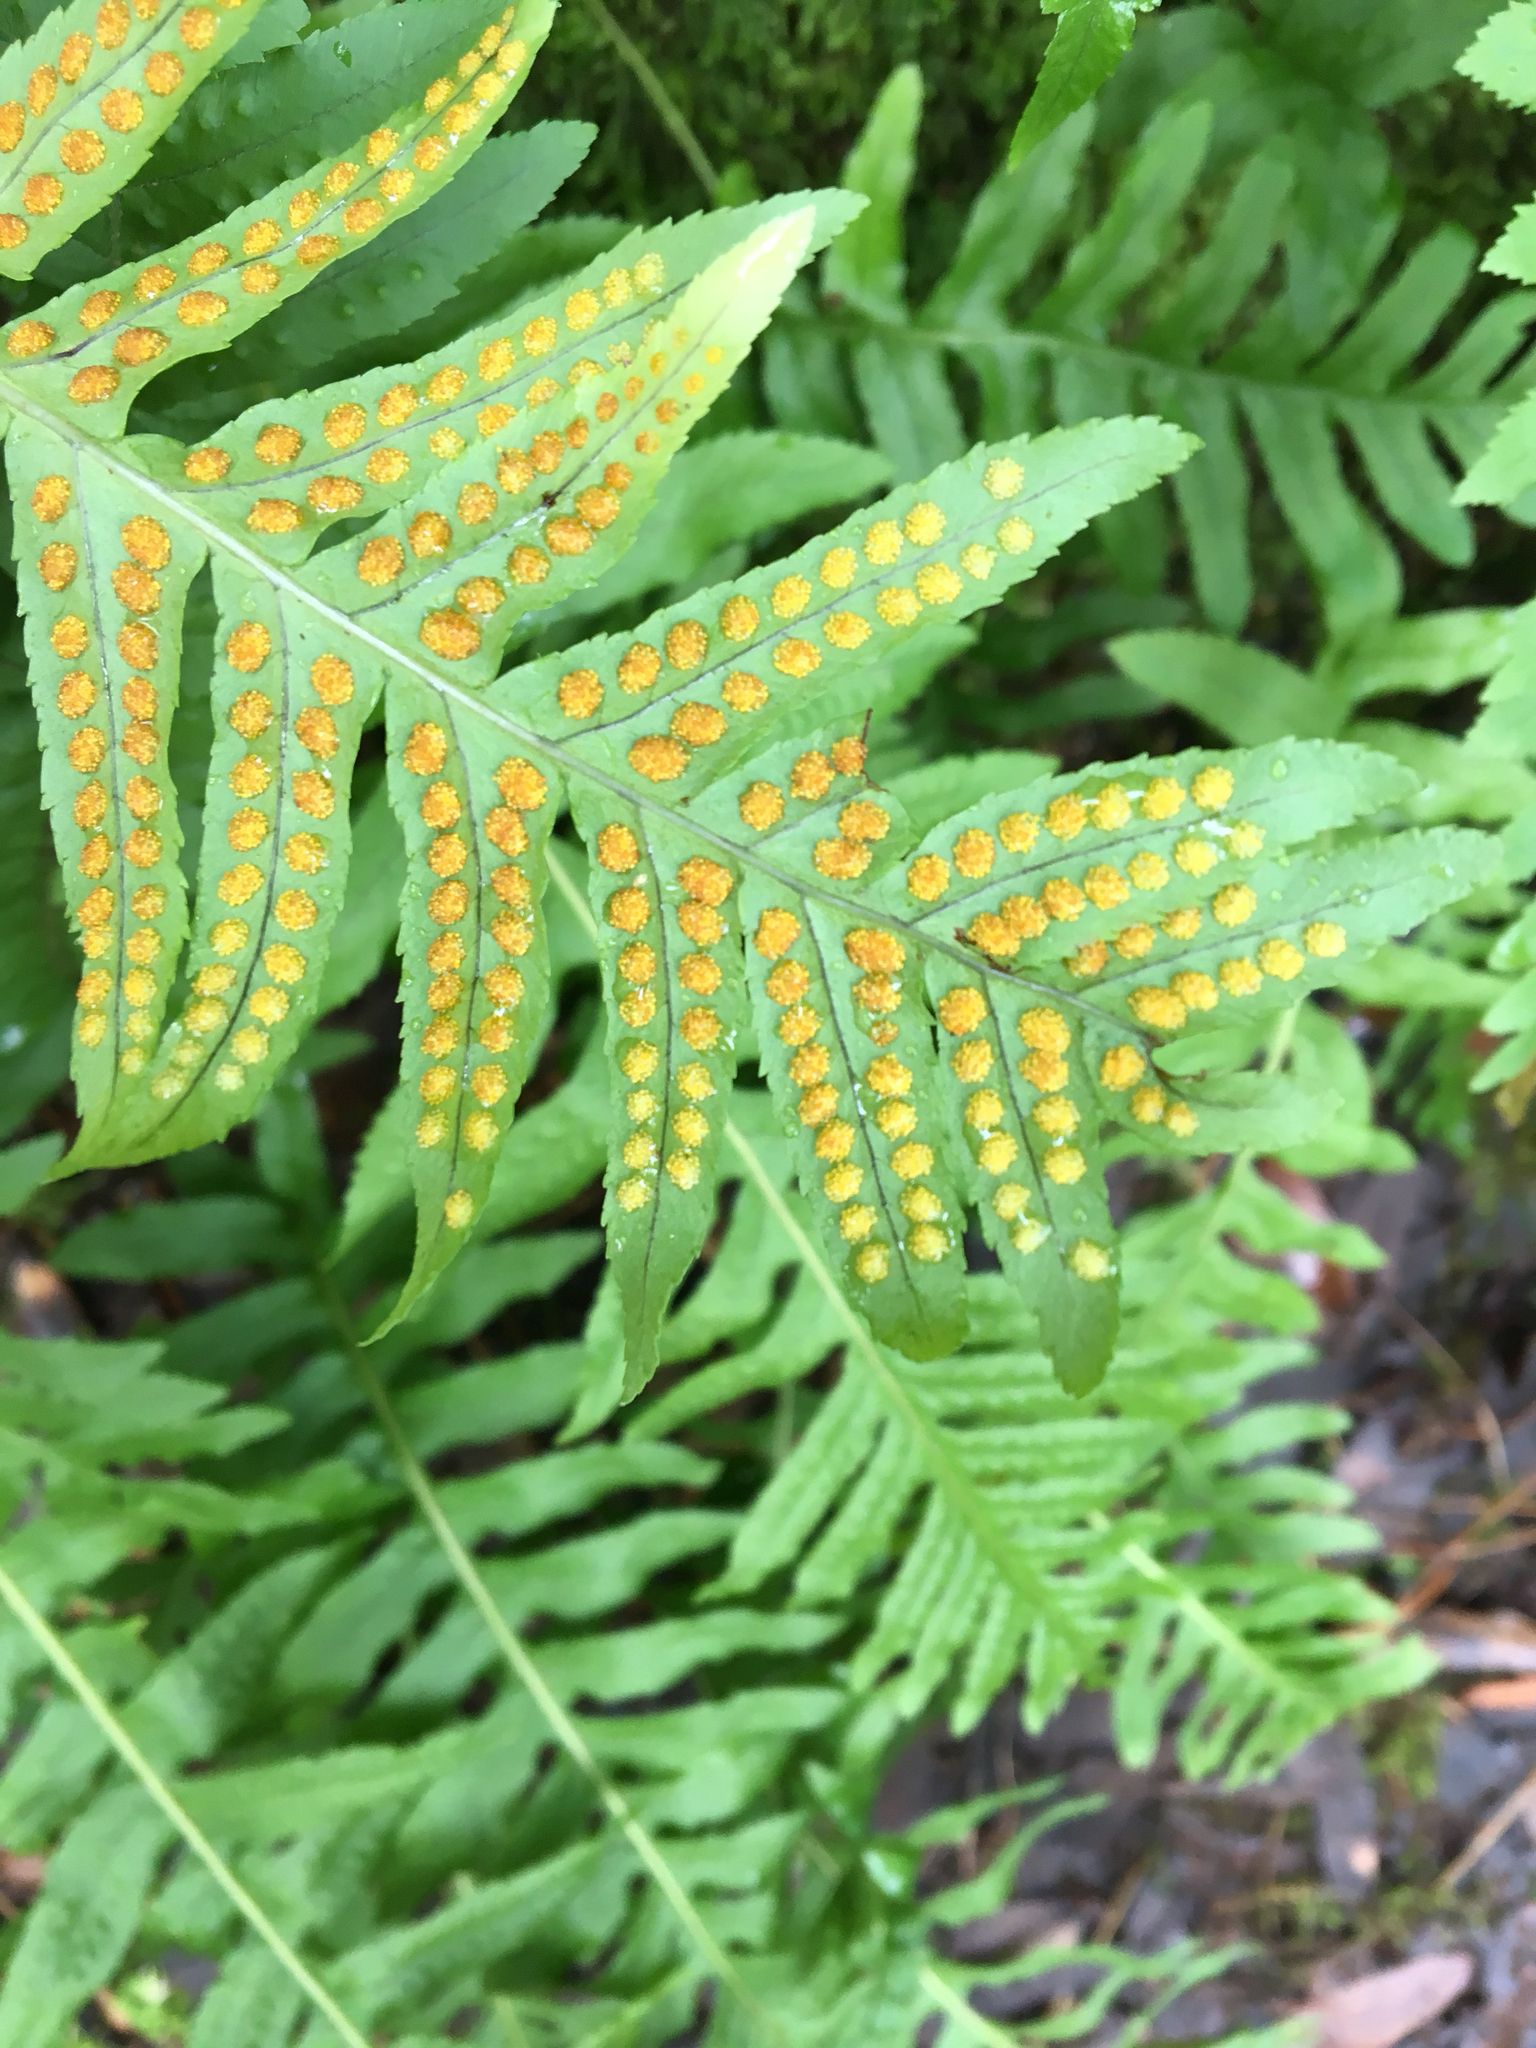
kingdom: Plantae
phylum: Tracheophyta
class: Polypodiopsida
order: Polypodiales
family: Polypodiaceae
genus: Polypodium
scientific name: Polypodium californicum
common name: California polypody
